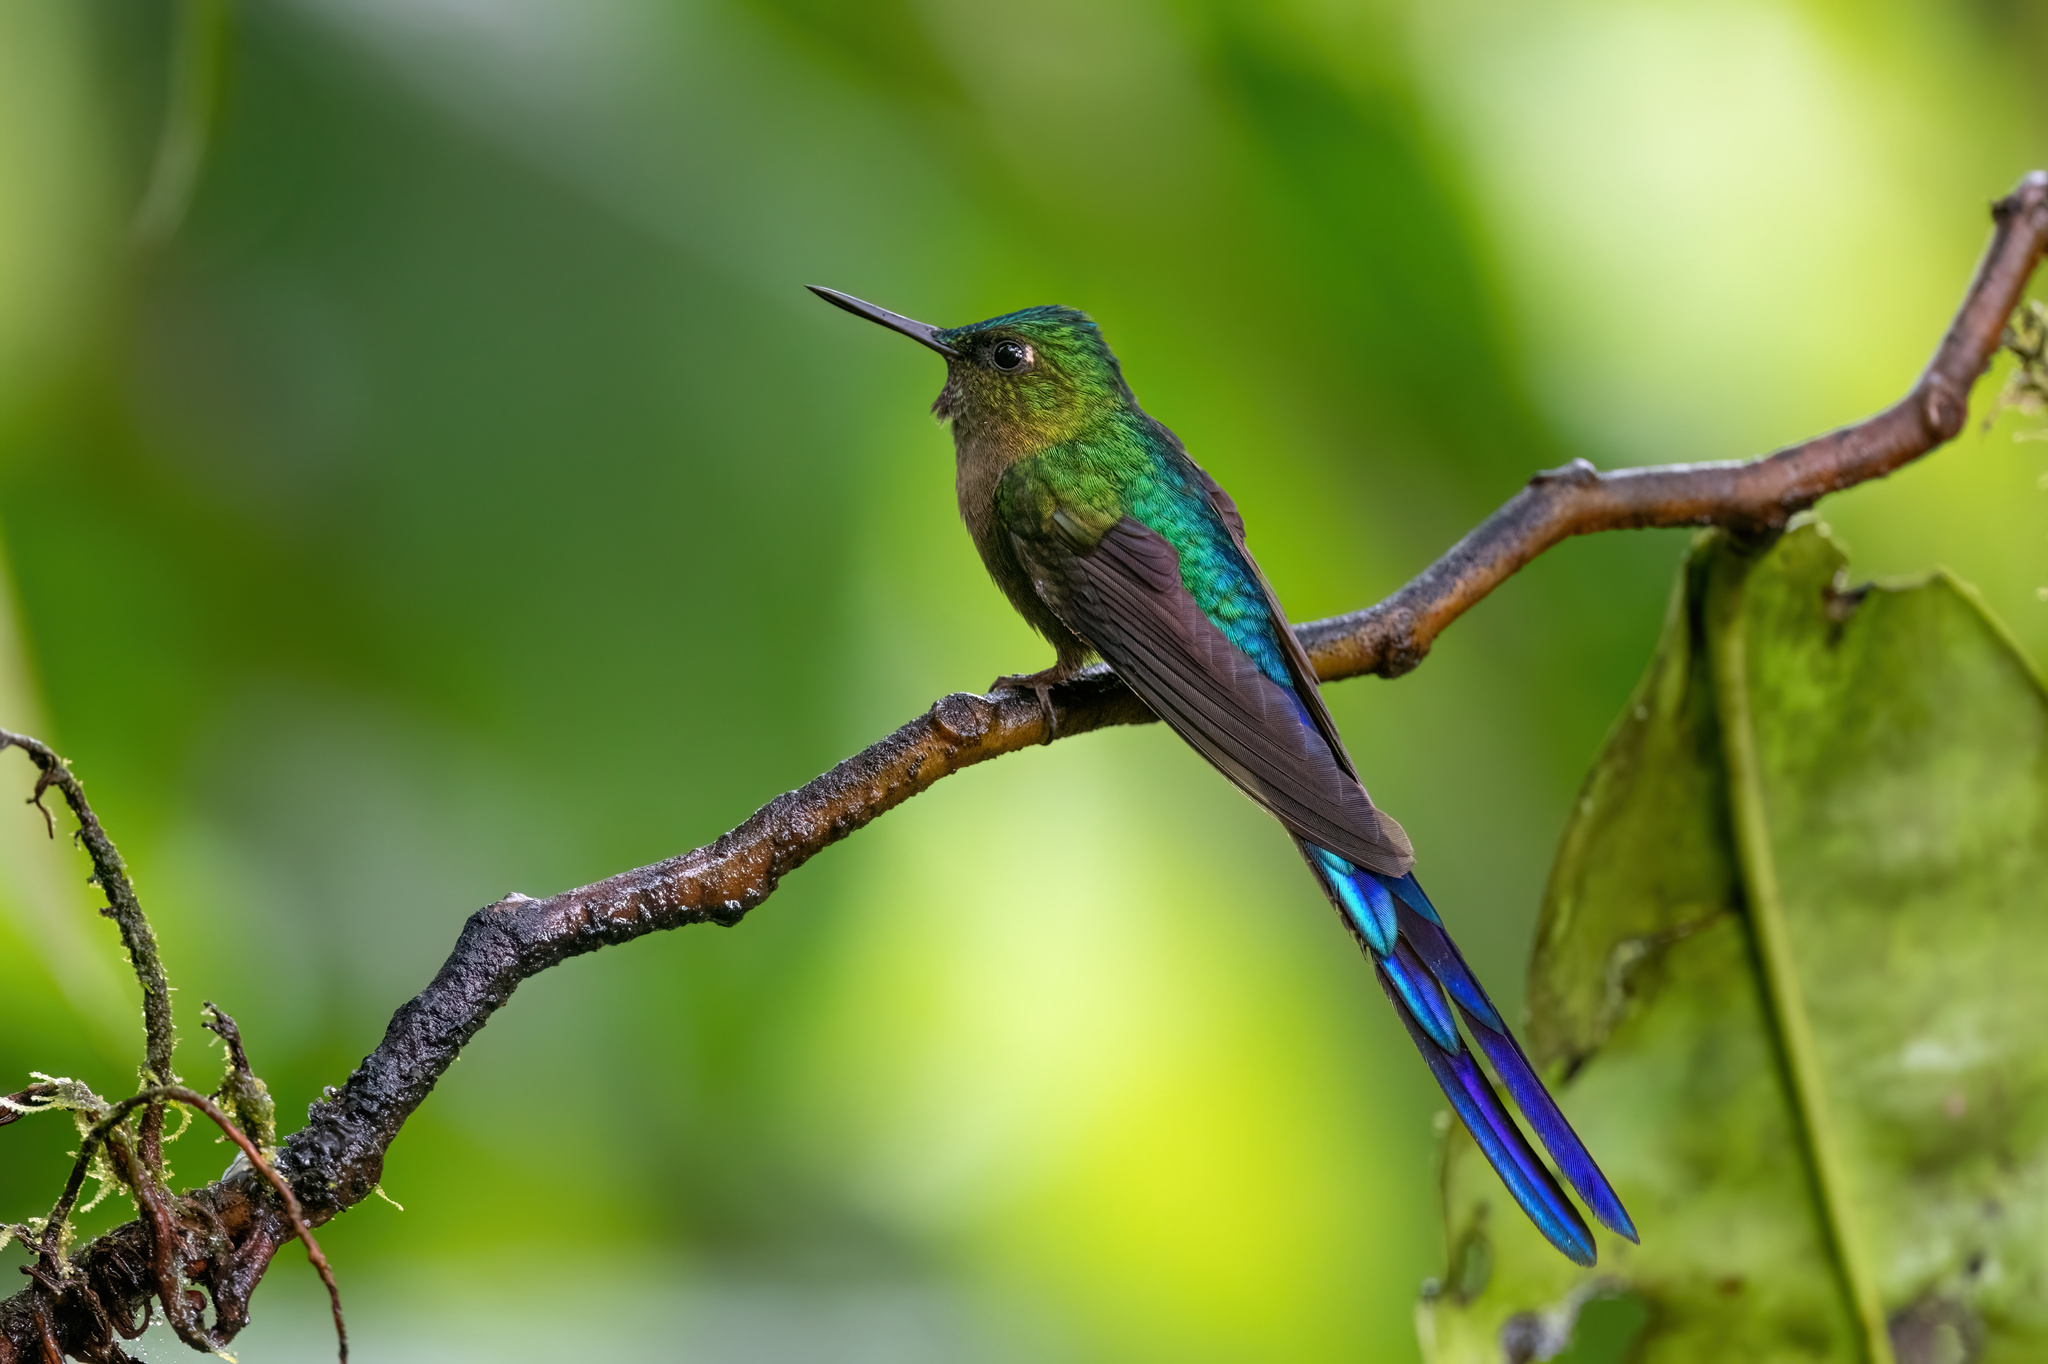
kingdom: Animalia
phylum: Chordata
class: Aves
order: Apodiformes
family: Trochilidae
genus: Aglaiocercus
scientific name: Aglaiocercus coelestis
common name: Violet-tailed sylph
